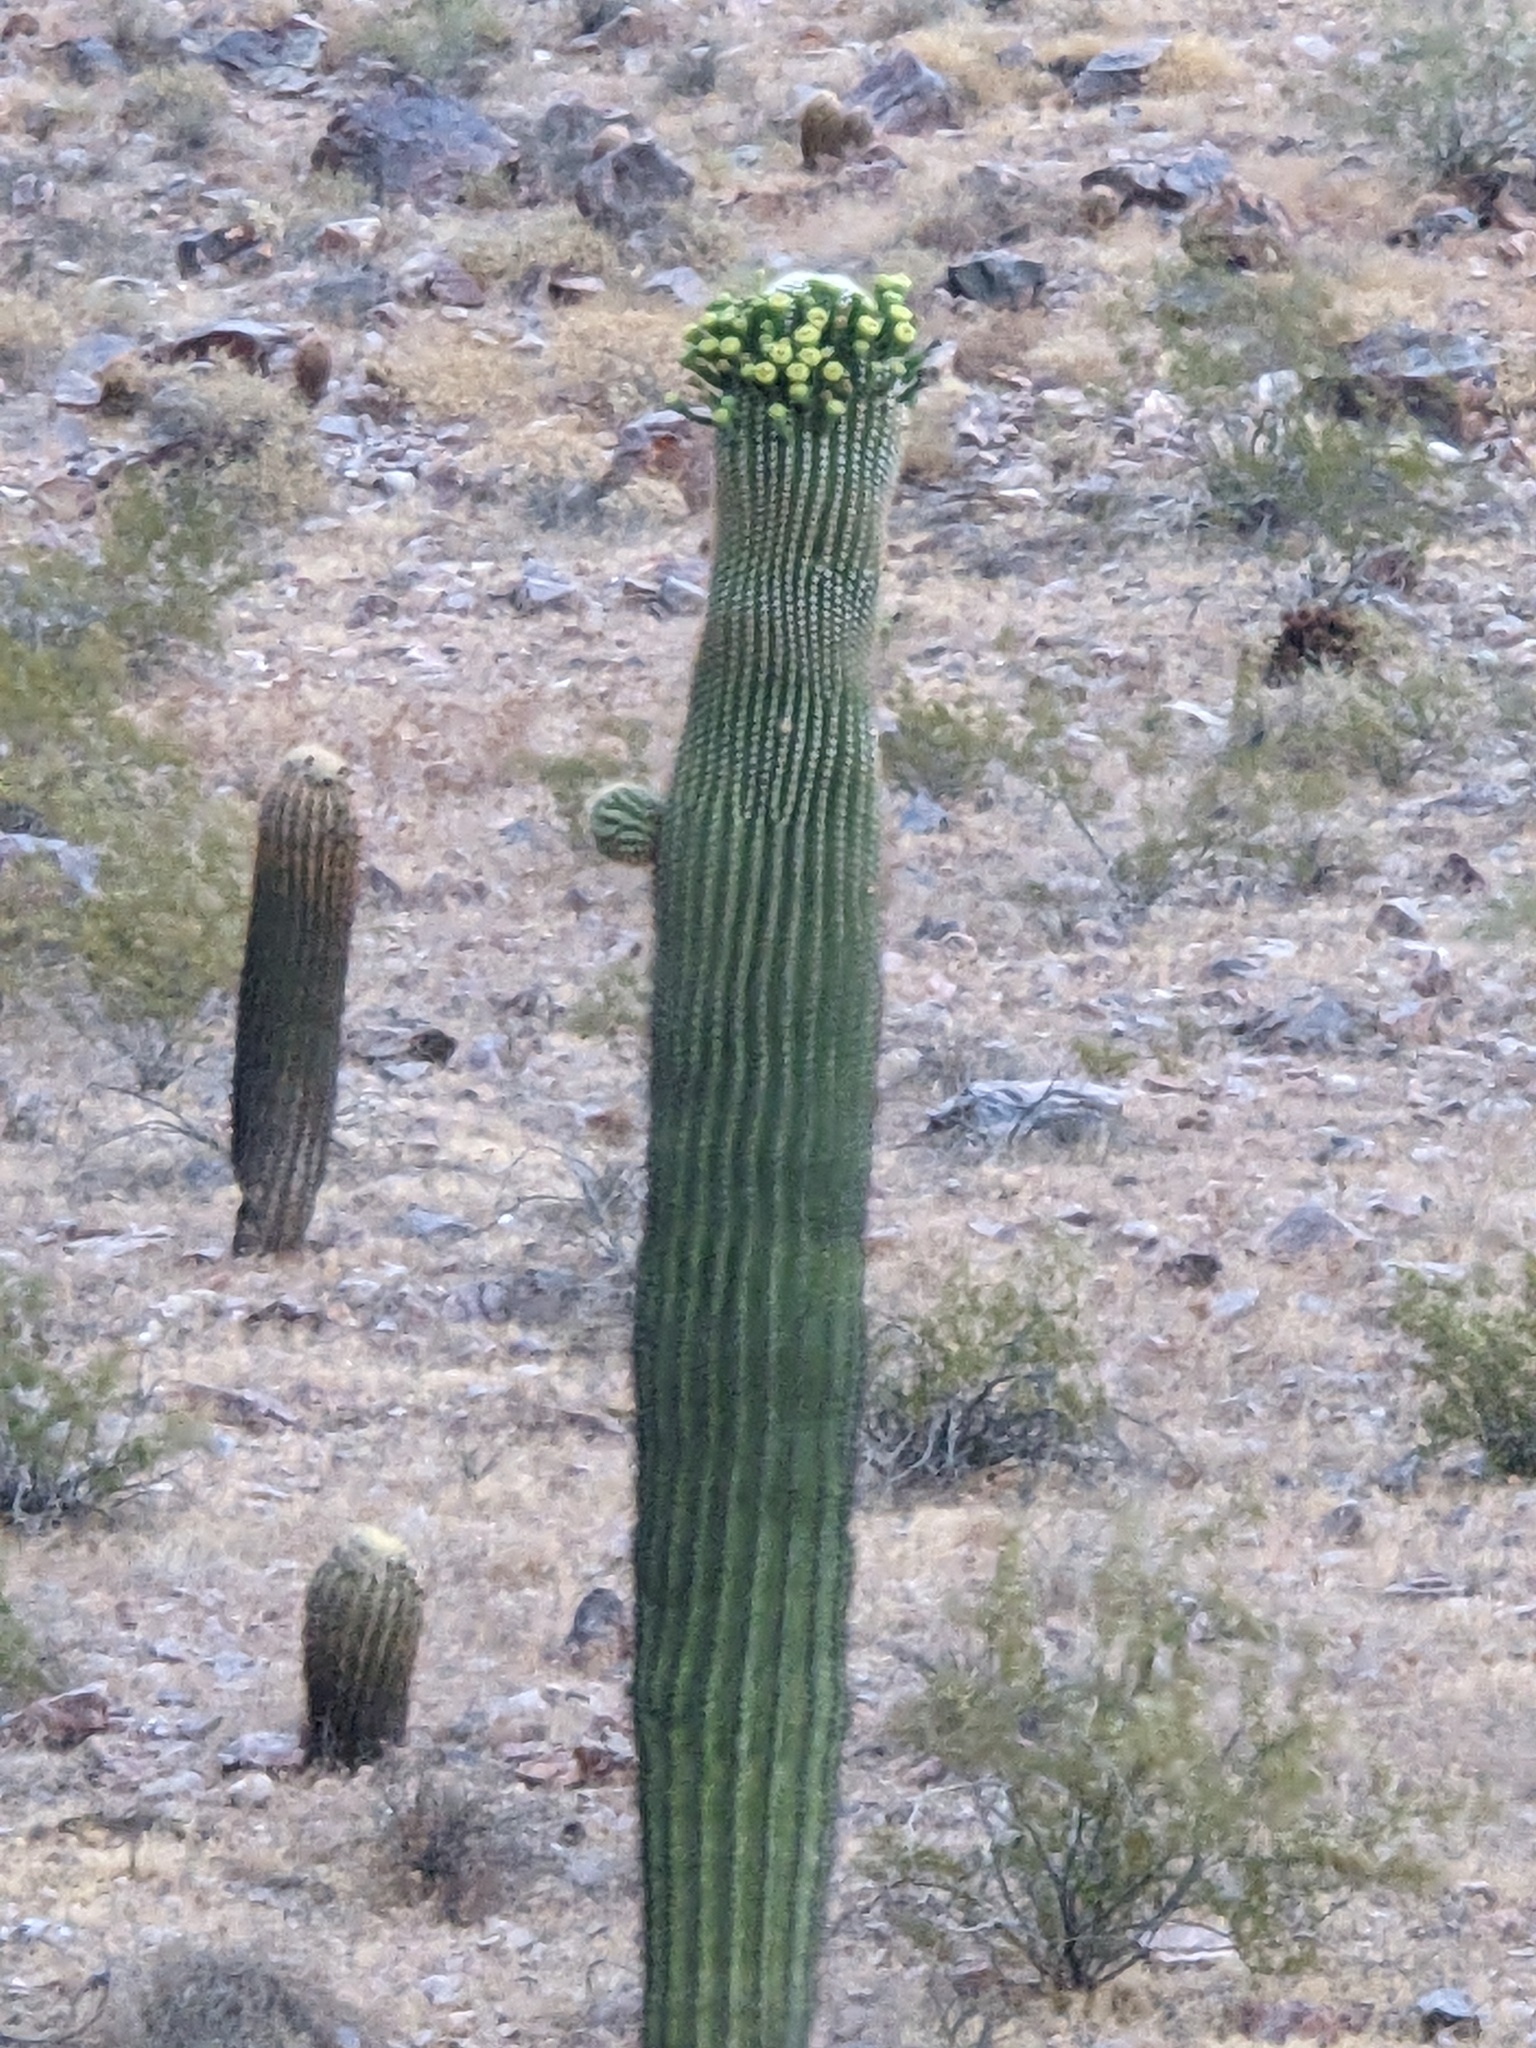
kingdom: Plantae
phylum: Tracheophyta
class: Magnoliopsida
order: Caryophyllales
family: Cactaceae
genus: Carnegiea
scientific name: Carnegiea gigantea
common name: Saguaro
